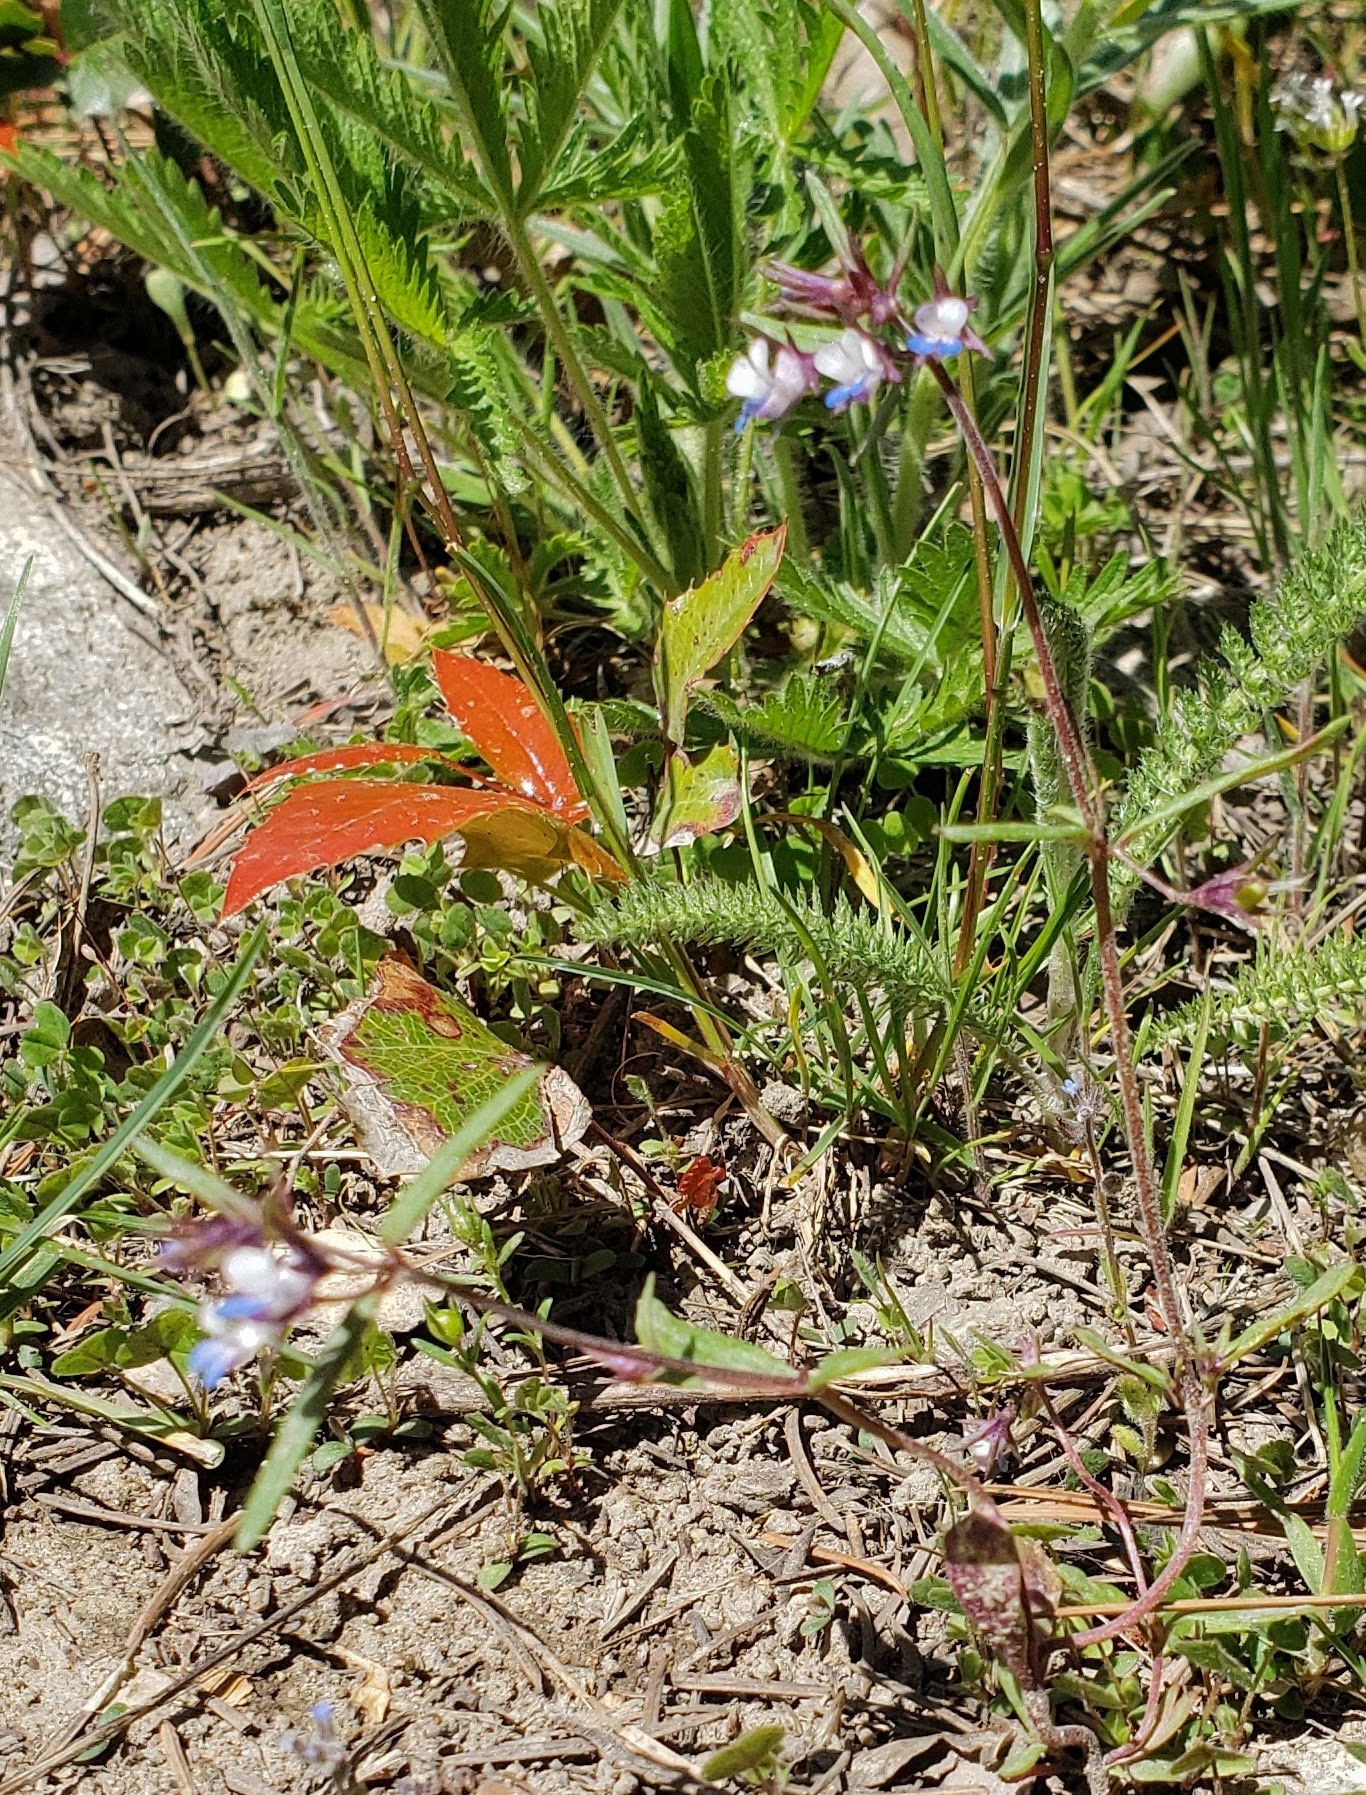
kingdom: Plantae
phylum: Tracheophyta
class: Magnoliopsida
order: Lamiales
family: Plantaginaceae
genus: Collinsia
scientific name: Collinsia parviflora
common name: Blue-lips
